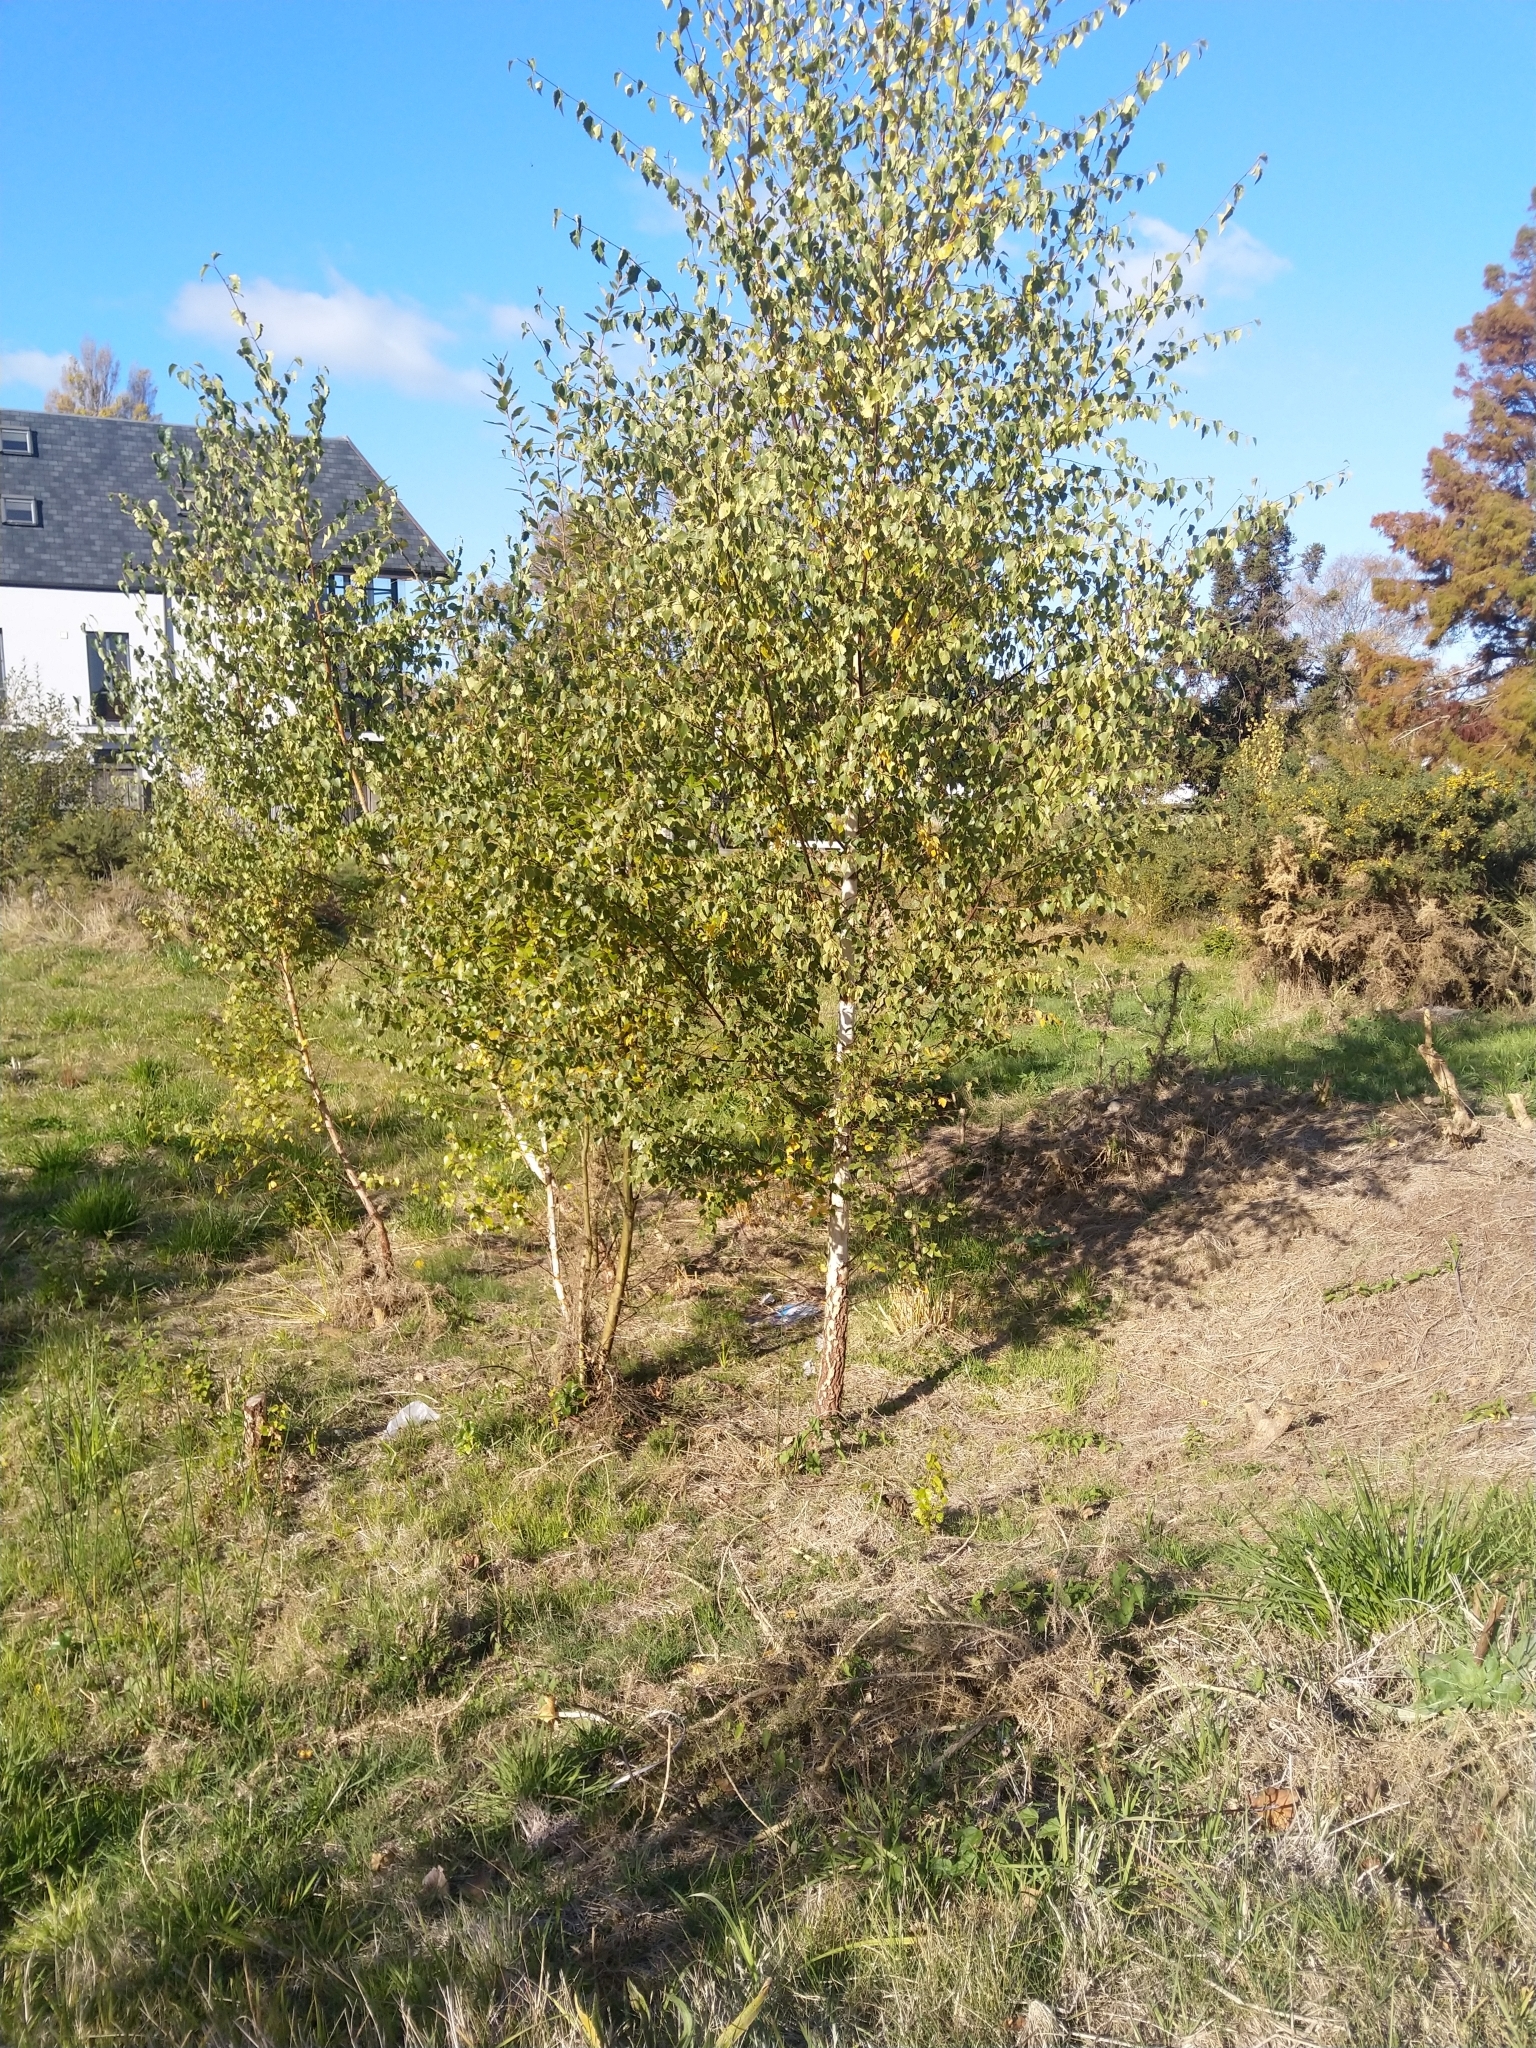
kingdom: Plantae
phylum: Tracheophyta
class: Magnoliopsida
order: Fagales
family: Betulaceae
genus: Betula
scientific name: Betula pendula
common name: Silver birch
